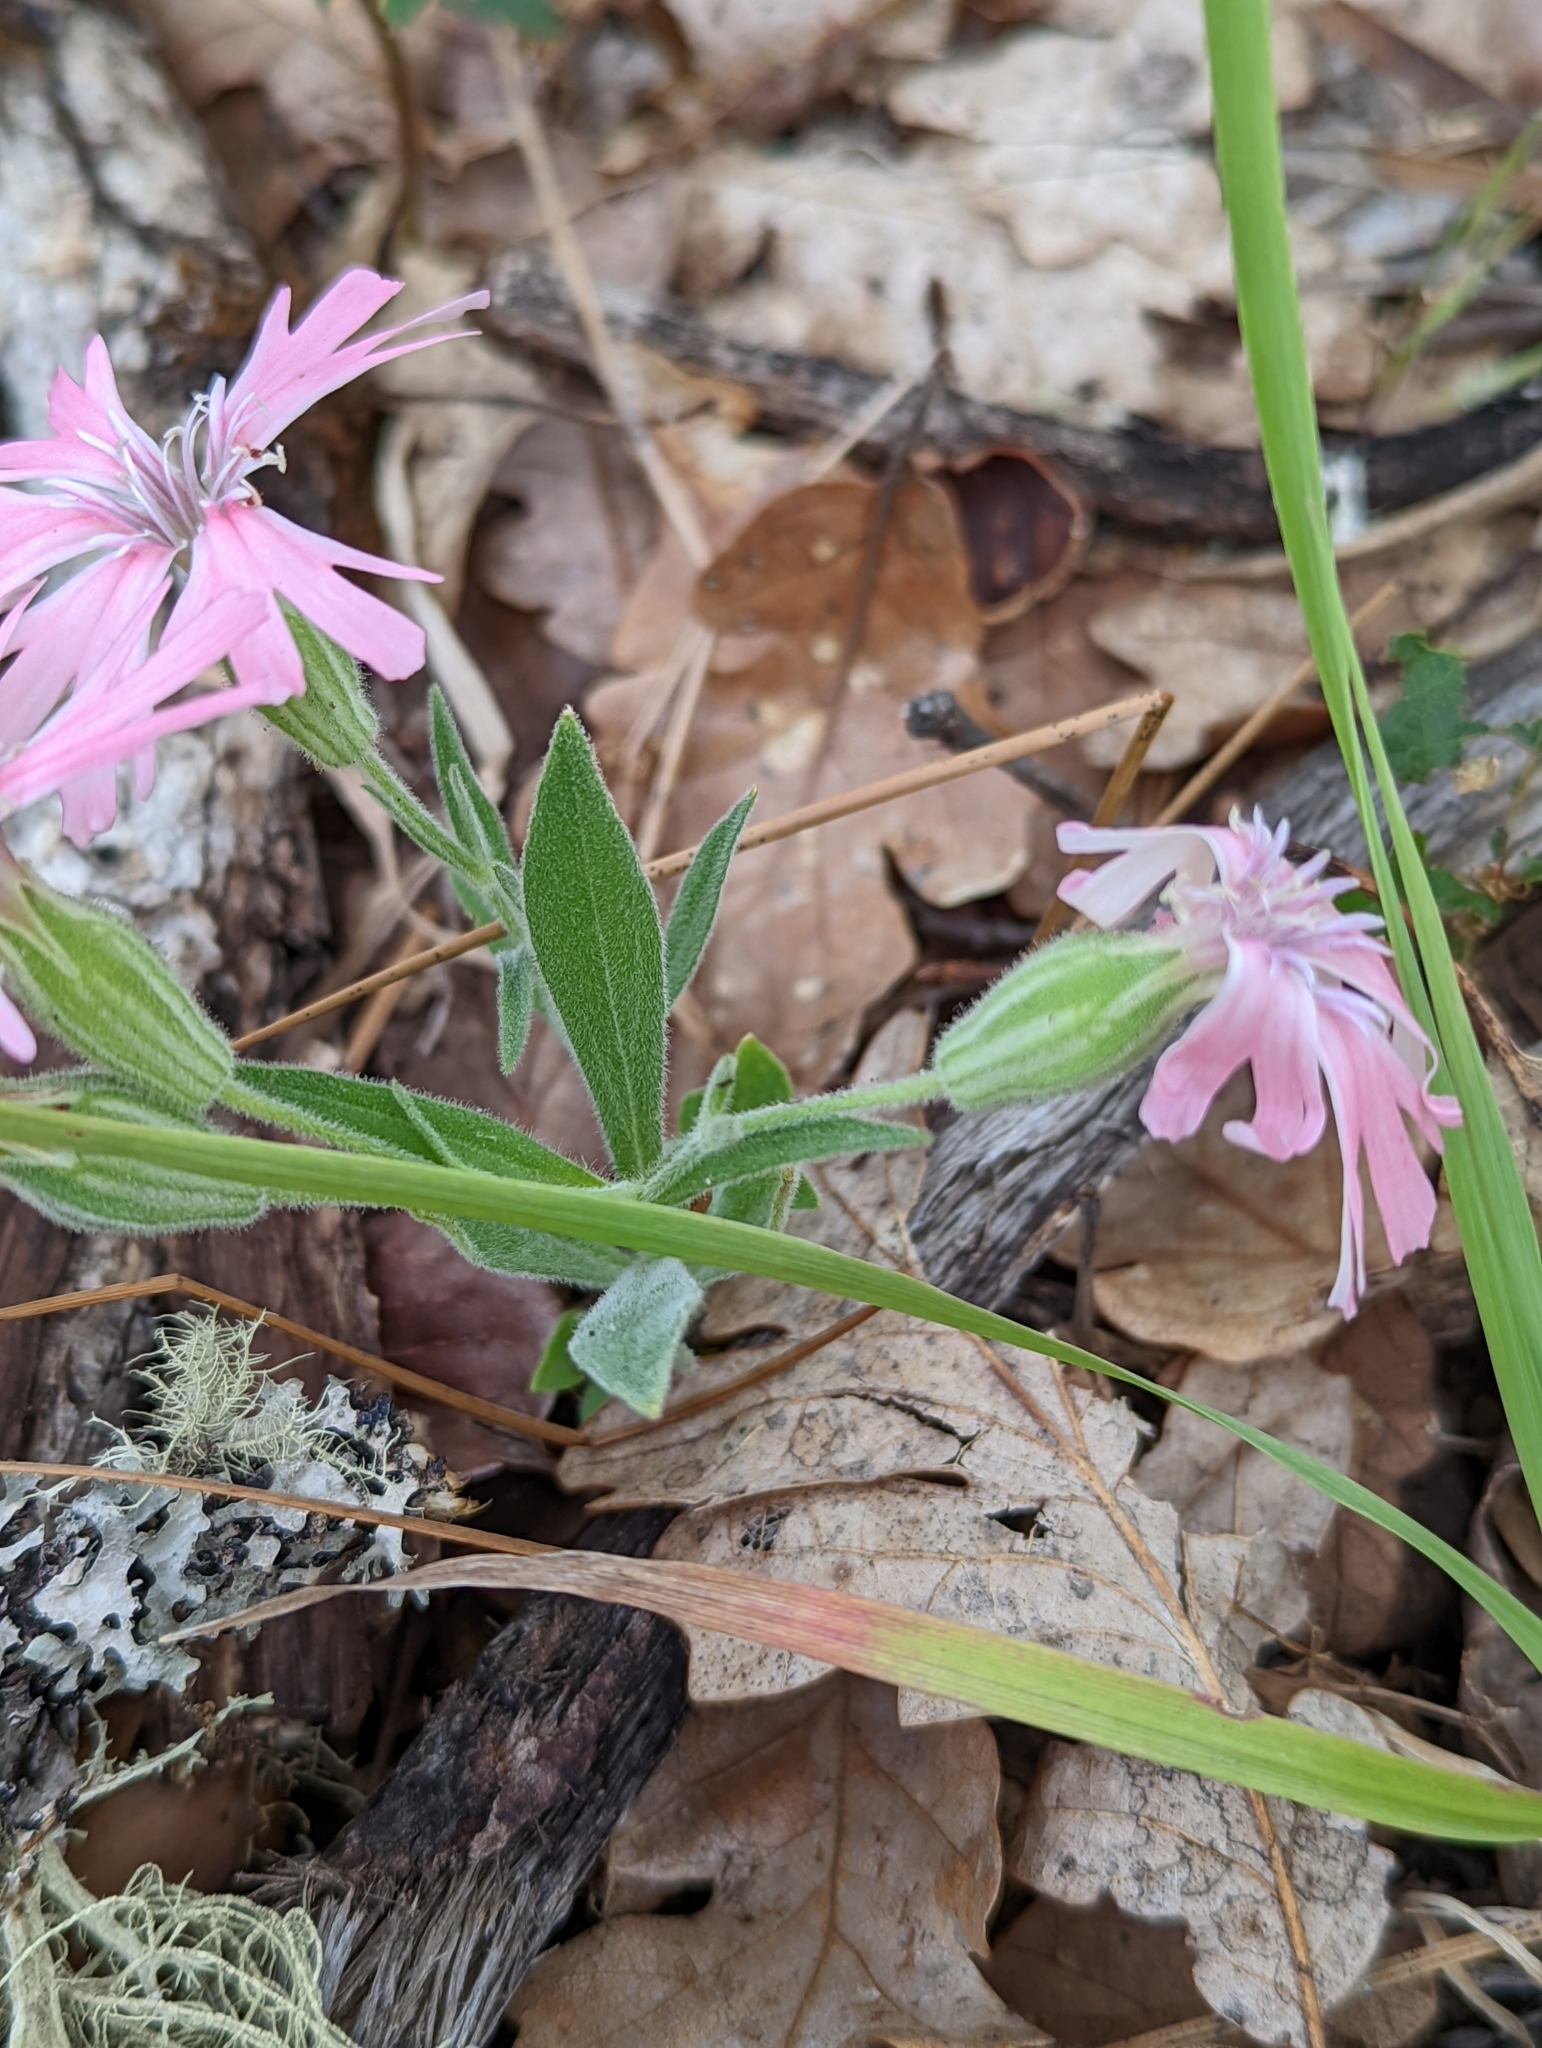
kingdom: Plantae
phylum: Tracheophyta
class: Magnoliopsida
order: Caryophyllales
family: Caryophyllaceae
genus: Silene
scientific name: Silene hookeri
